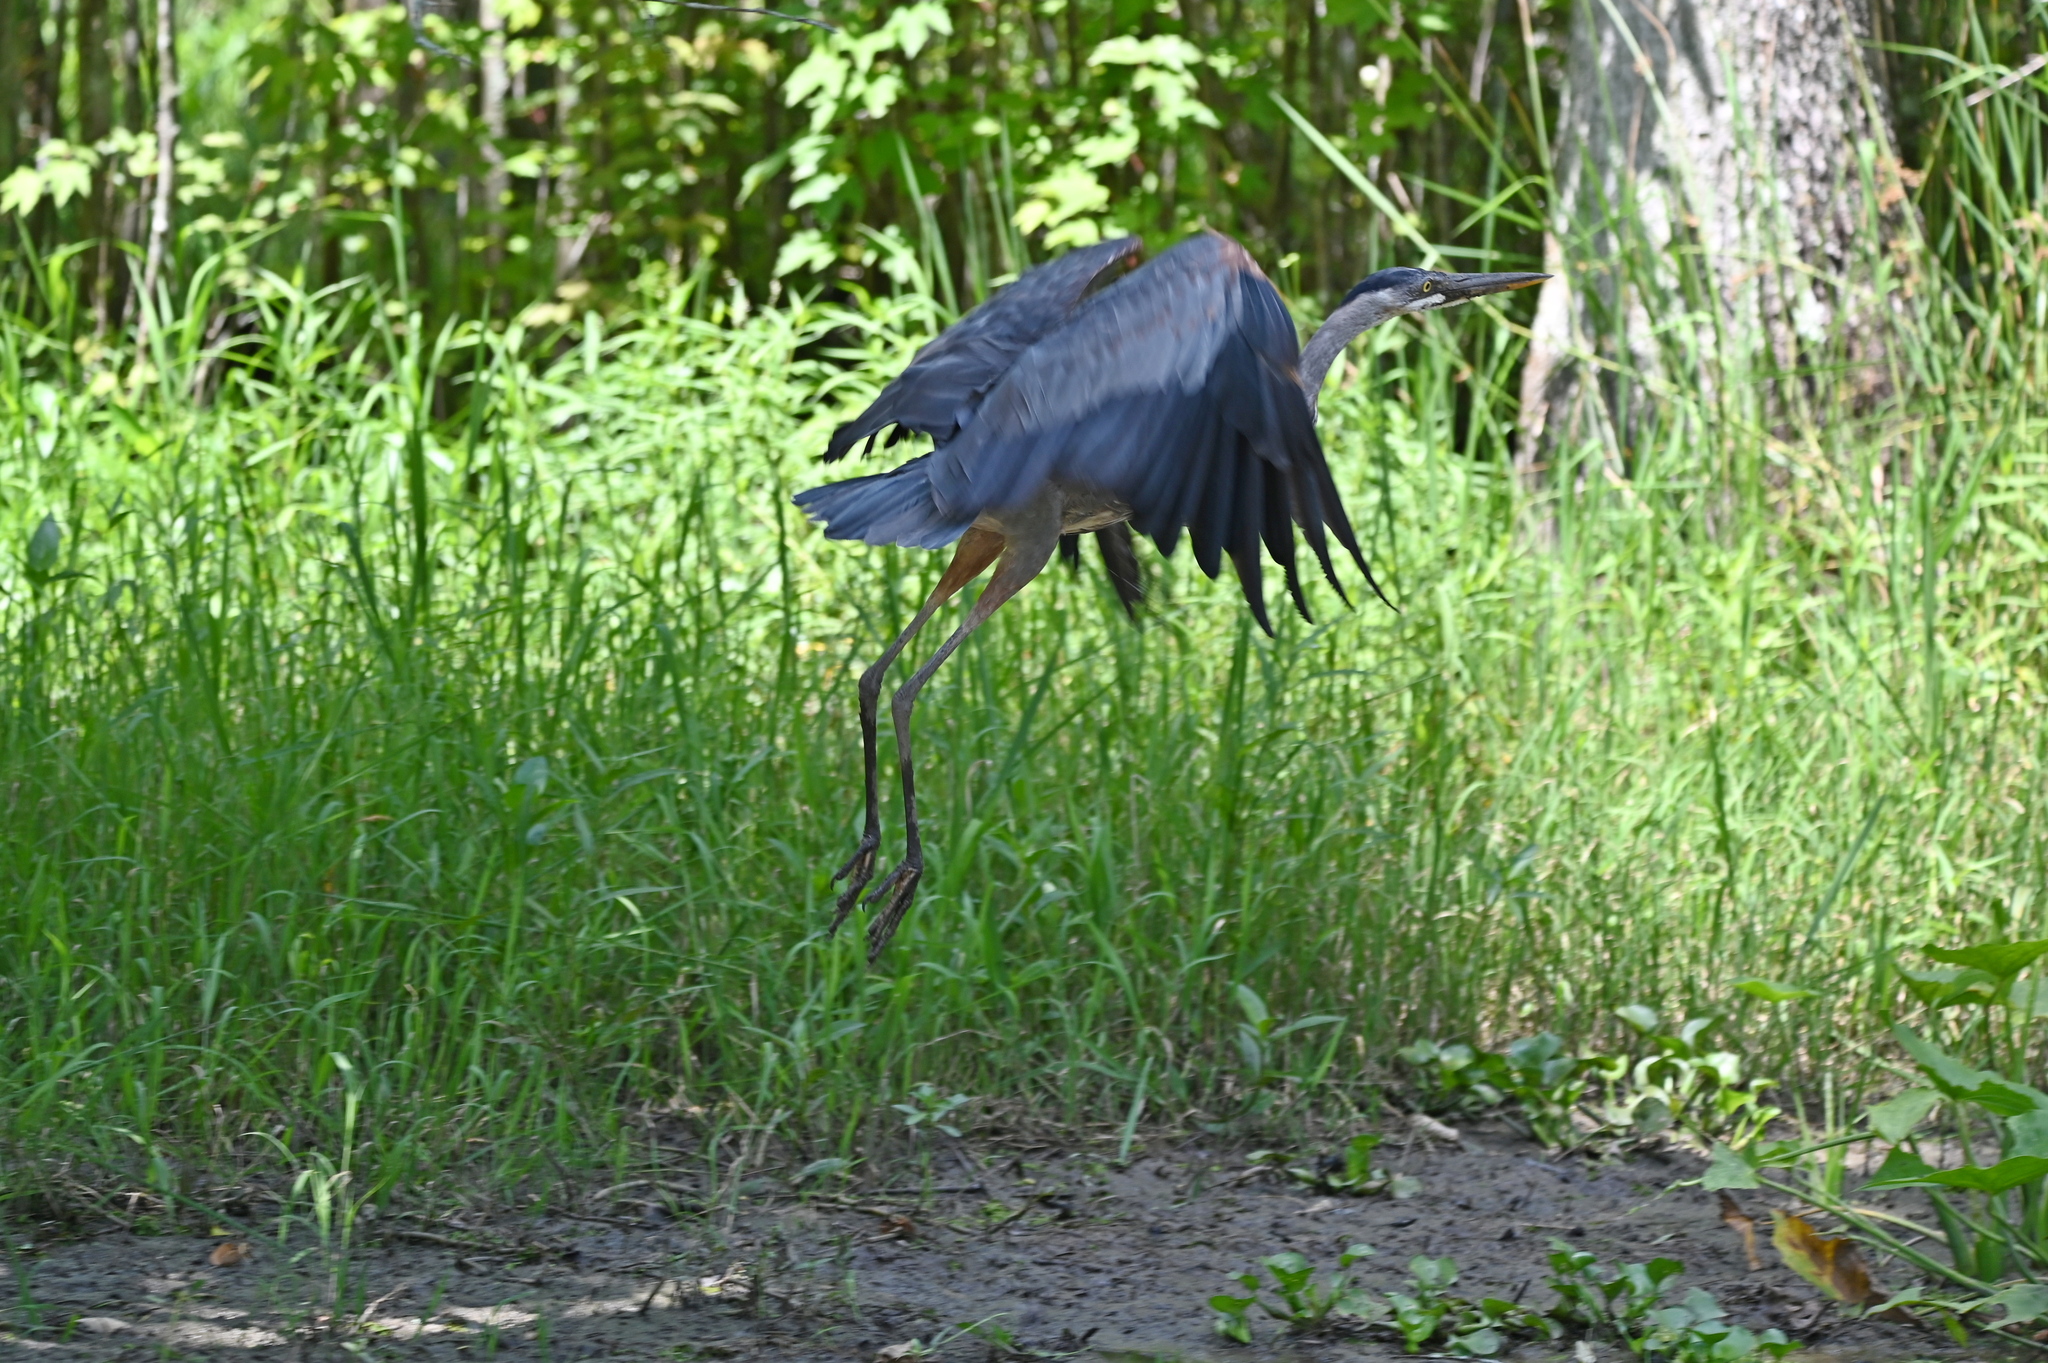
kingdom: Animalia
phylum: Chordata
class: Aves
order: Pelecaniformes
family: Ardeidae
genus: Ardea
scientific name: Ardea herodias
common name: Great blue heron
